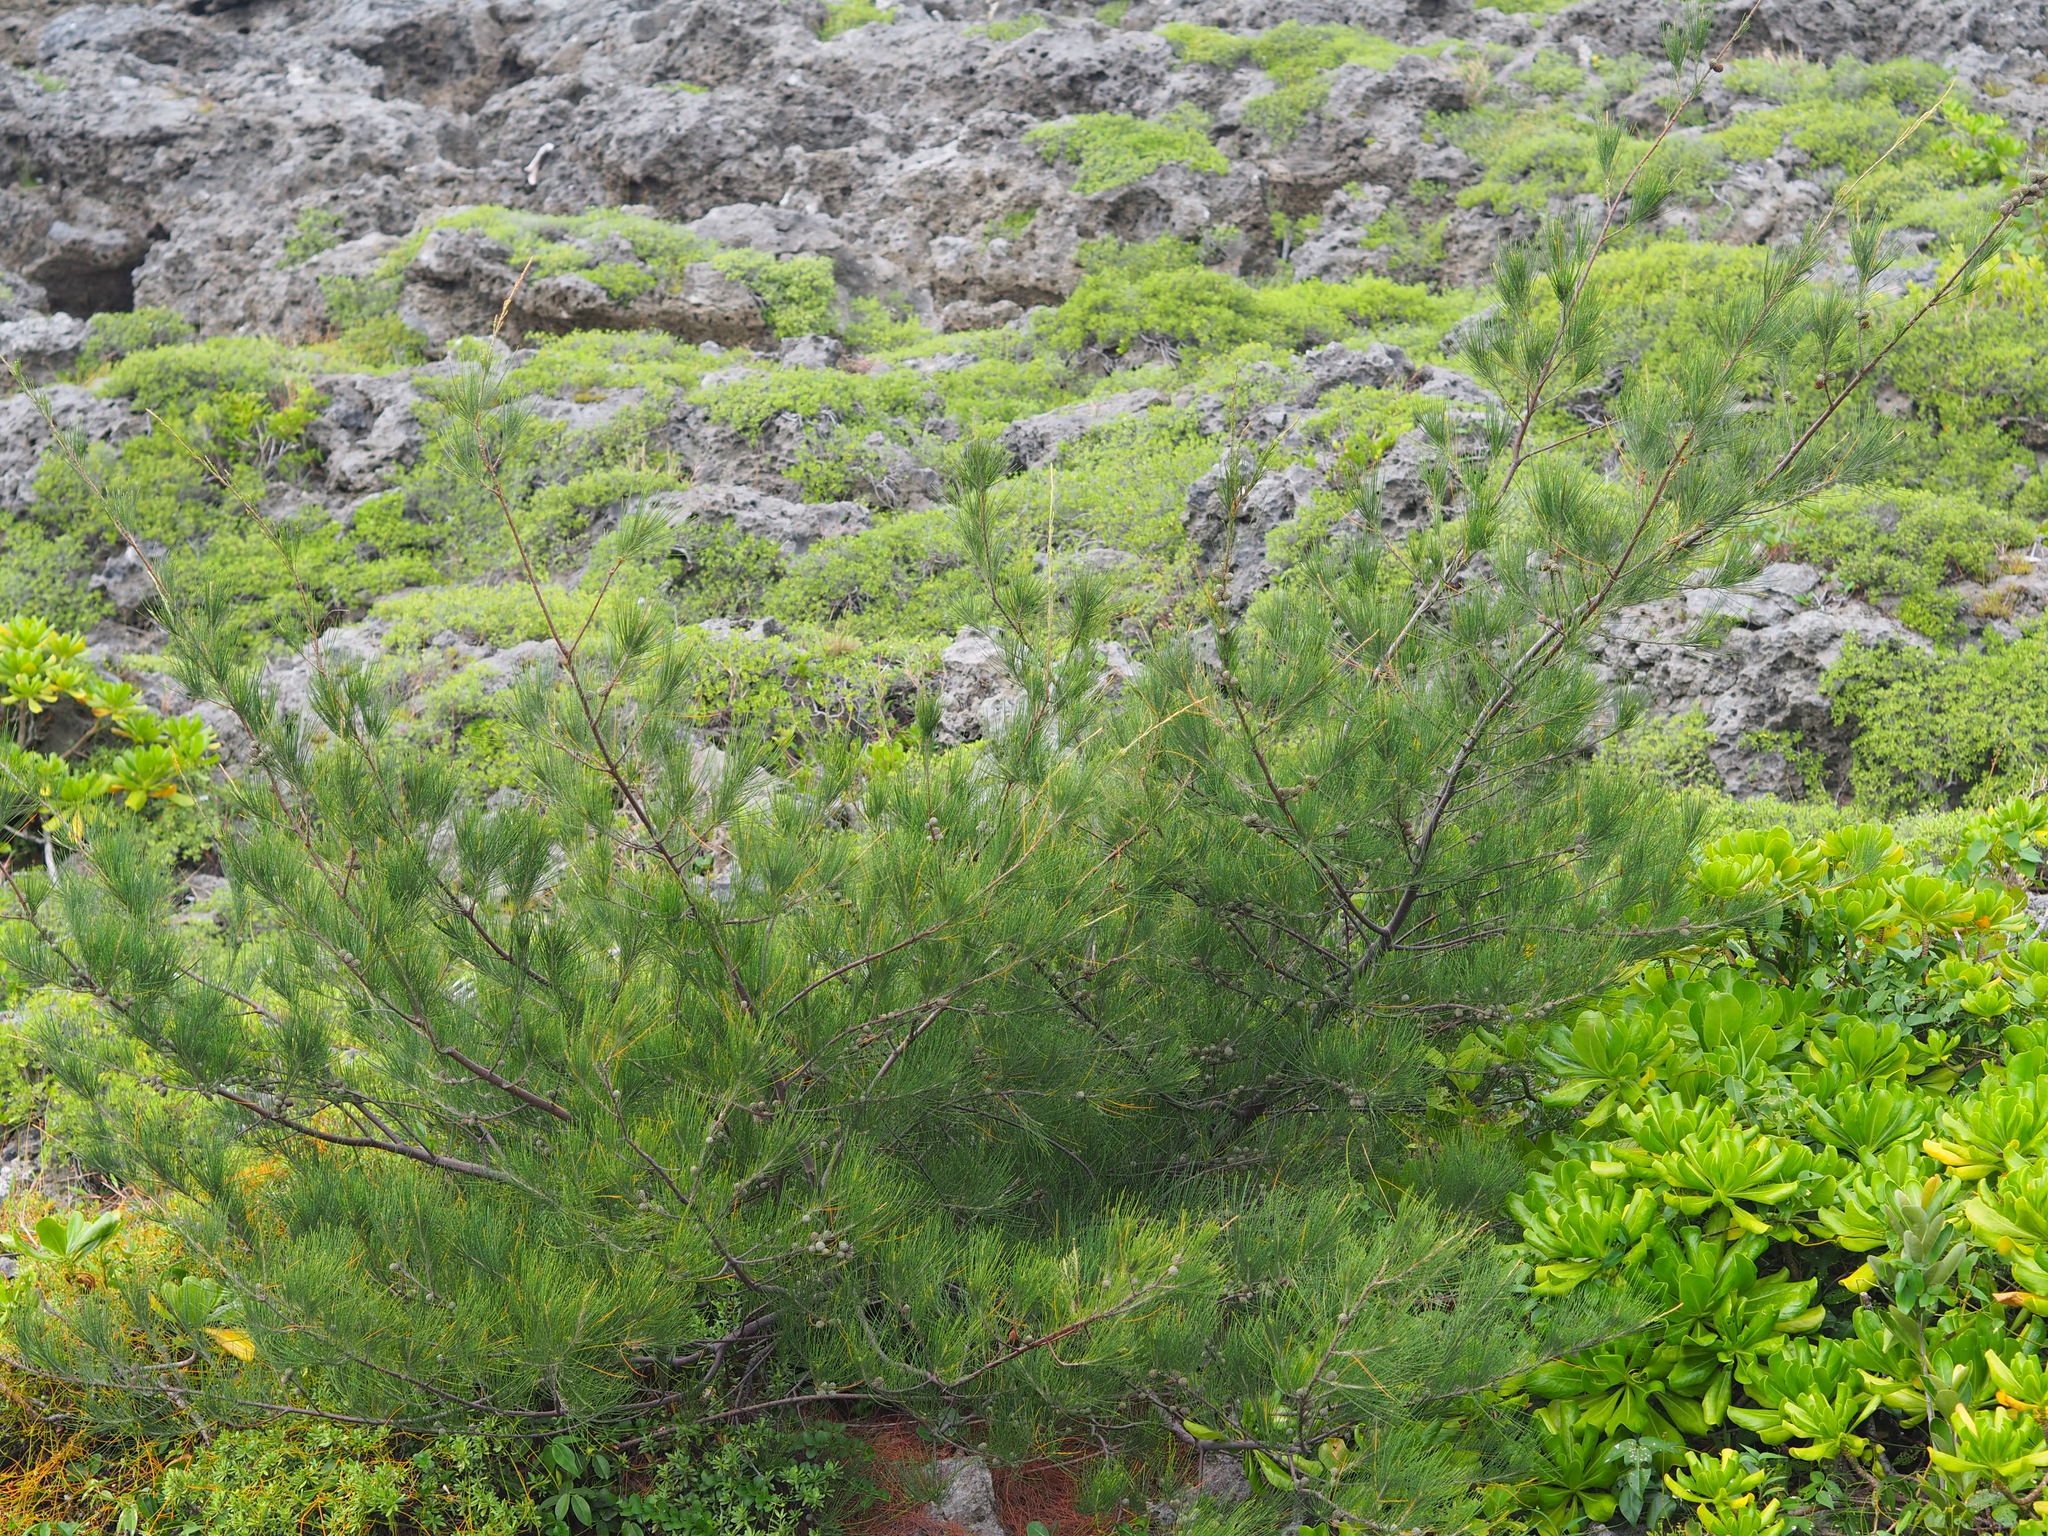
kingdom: Plantae
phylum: Tracheophyta
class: Magnoliopsida
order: Fagales
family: Casuarinaceae
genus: Casuarina
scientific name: Casuarina equisetifolia
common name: Beach sheoak
